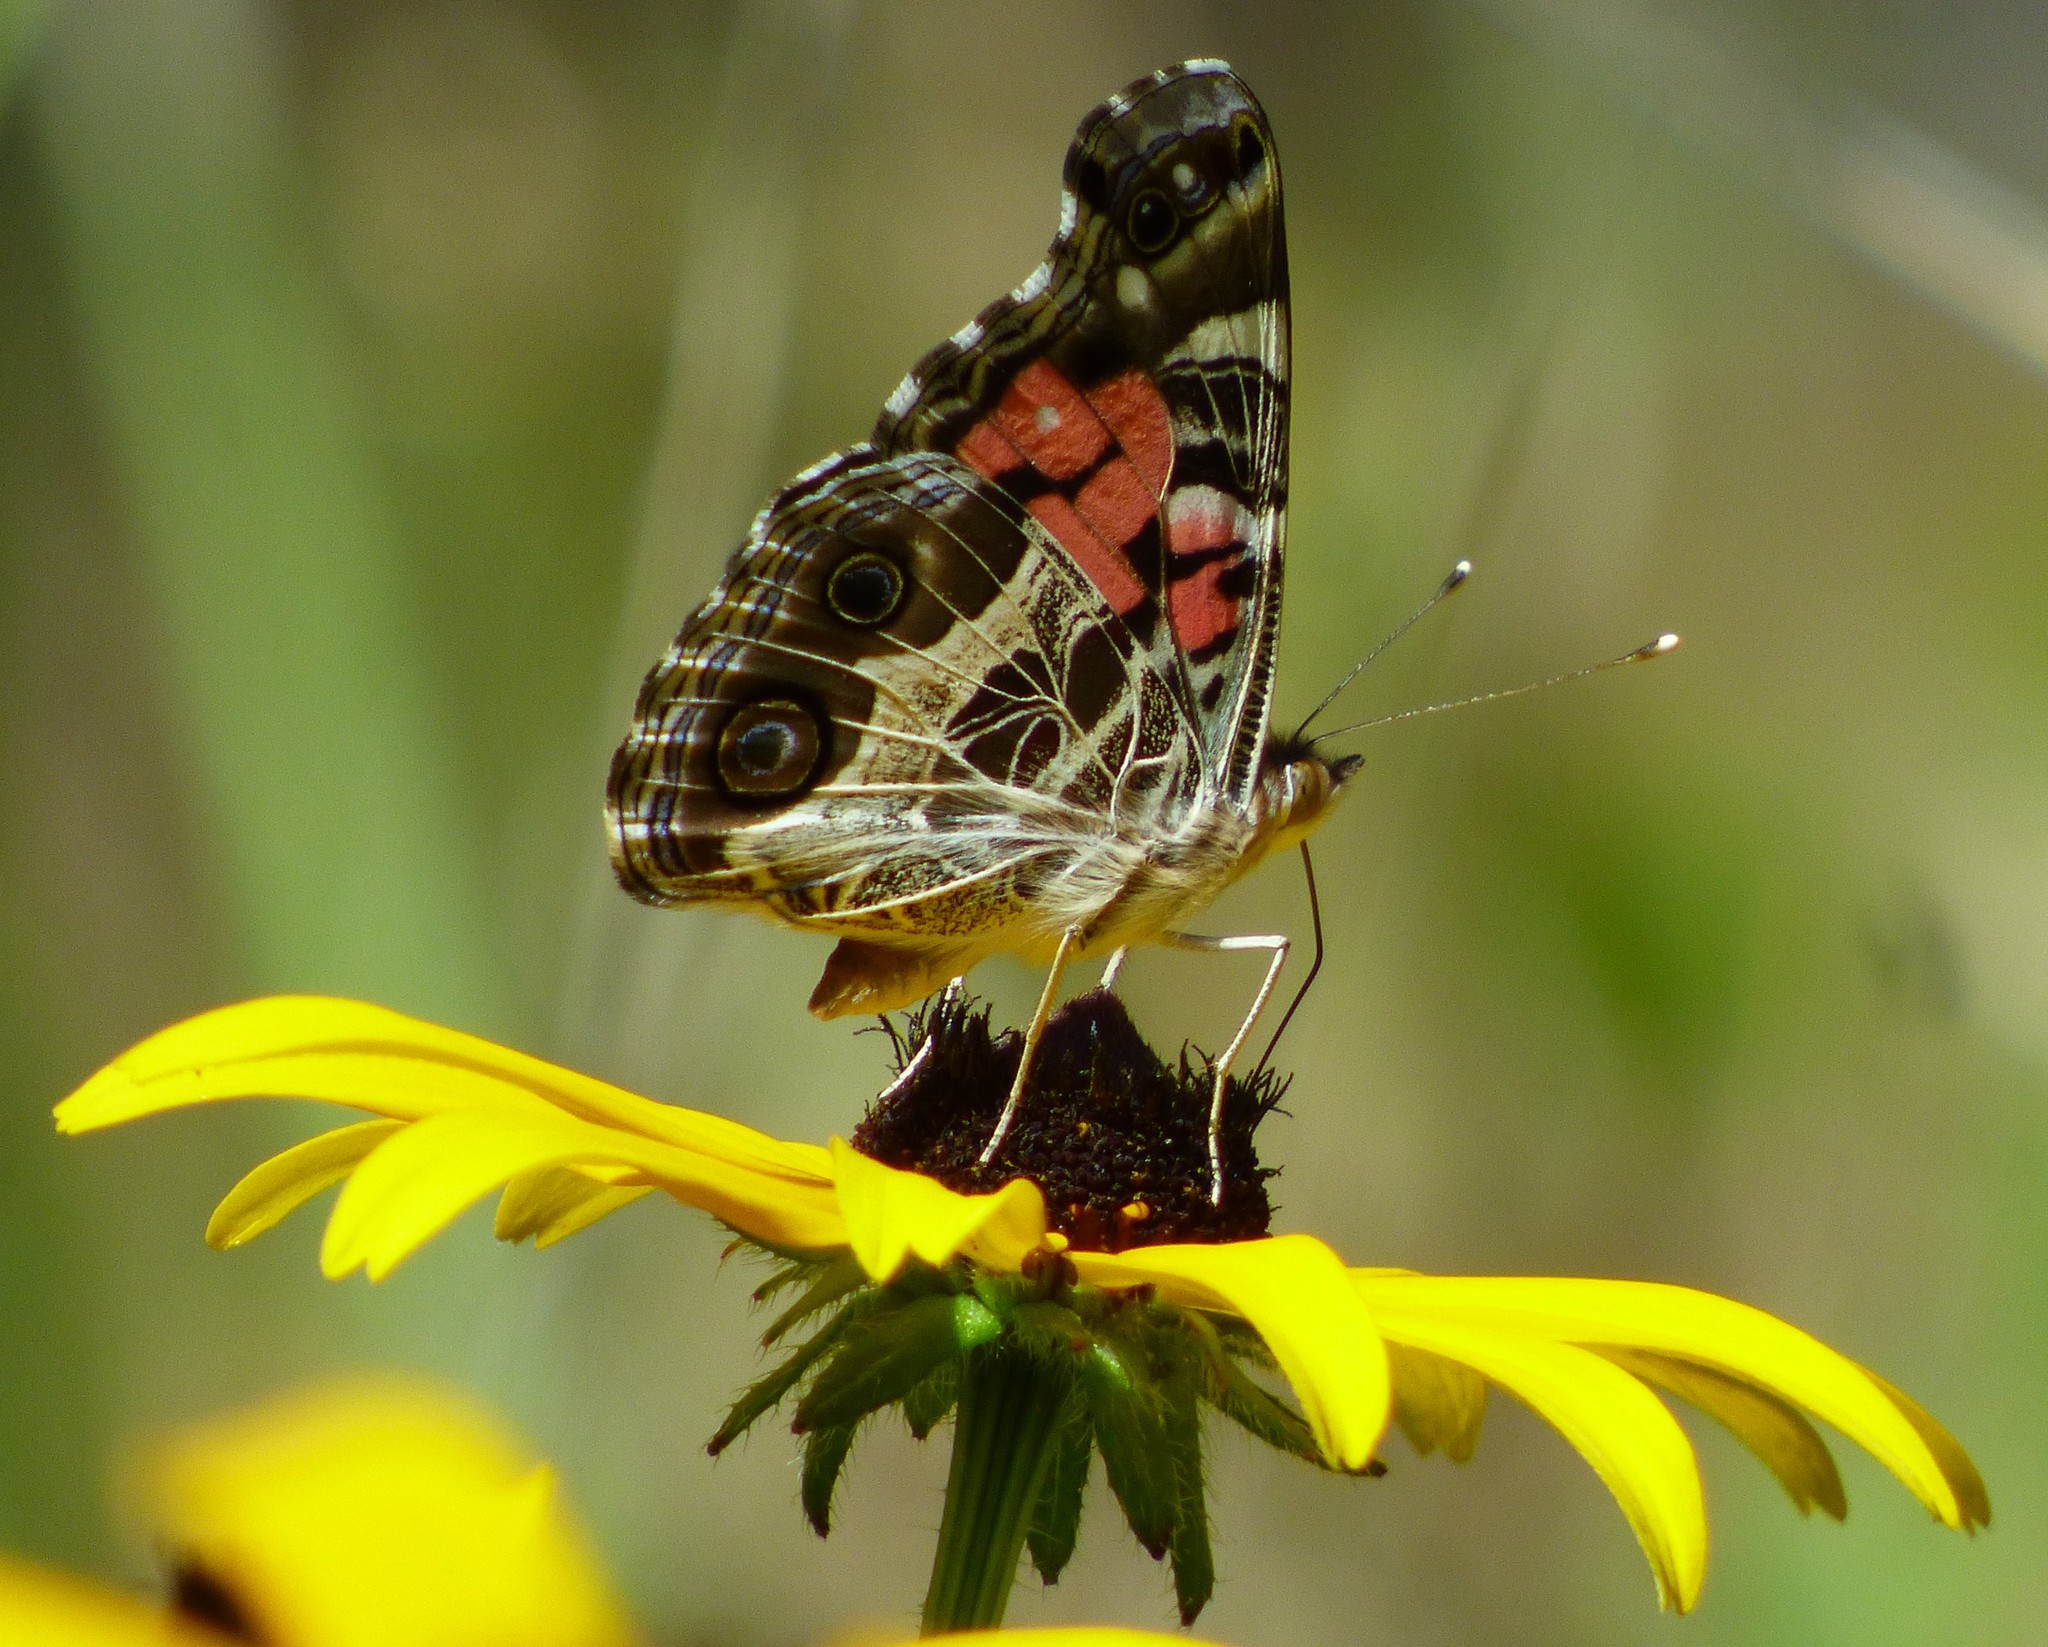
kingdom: Animalia
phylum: Arthropoda
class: Insecta
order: Lepidoptera
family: Nymphalidae
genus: Vanessa
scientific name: Vanessa virginiensis
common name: American lady
